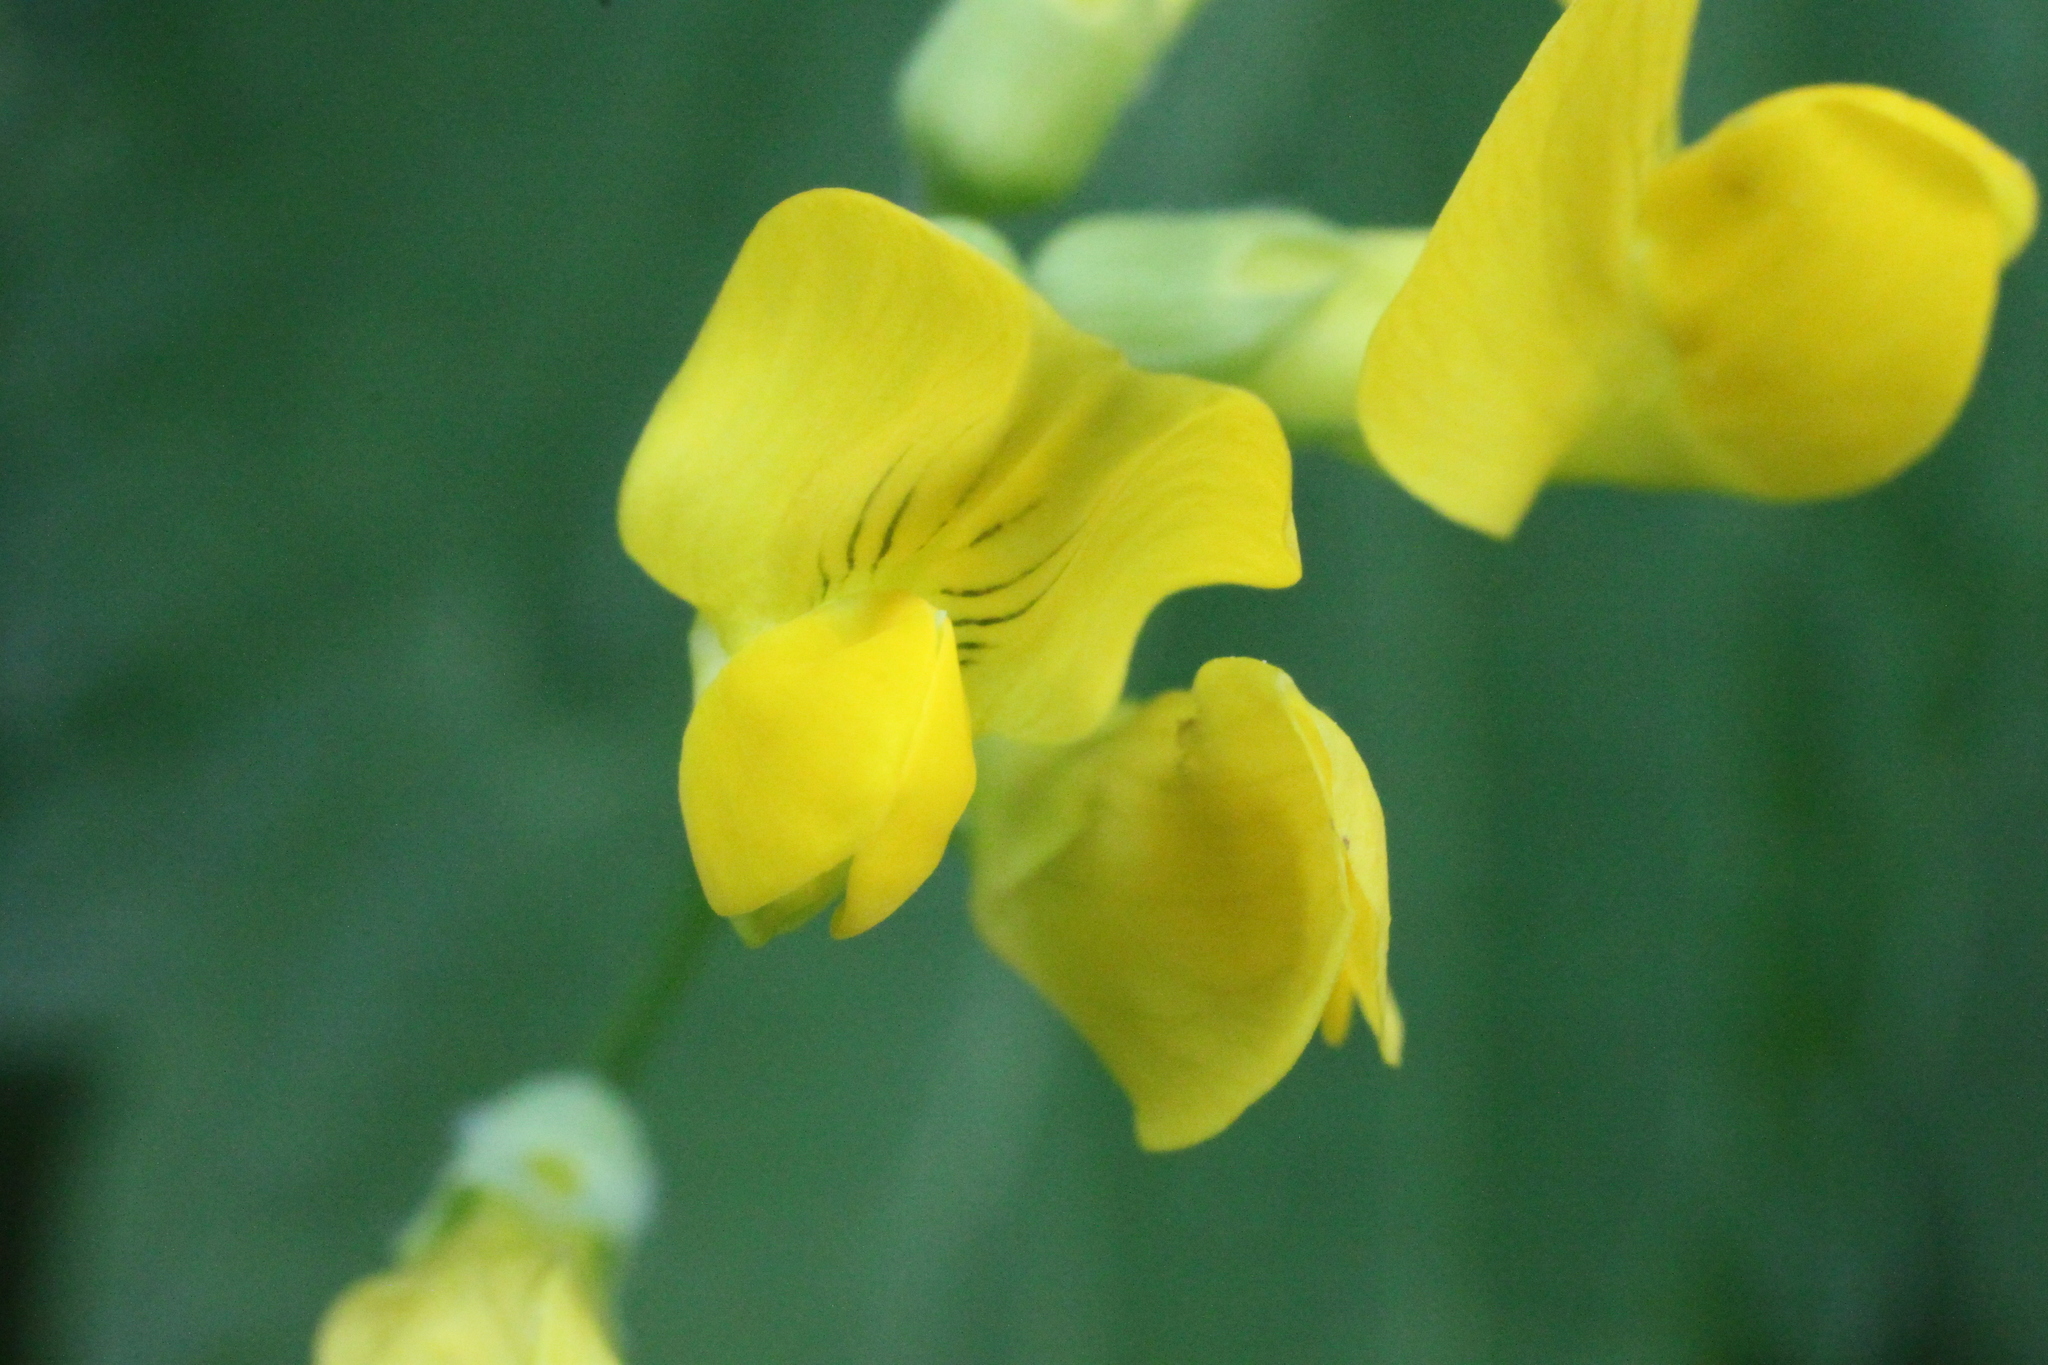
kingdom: Plantae
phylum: Tracheophyta
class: Magnoliopsida
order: Fabales
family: Fabaceae
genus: Lathyrus
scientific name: Lathyrus pratensis
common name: Meadow vetchling
